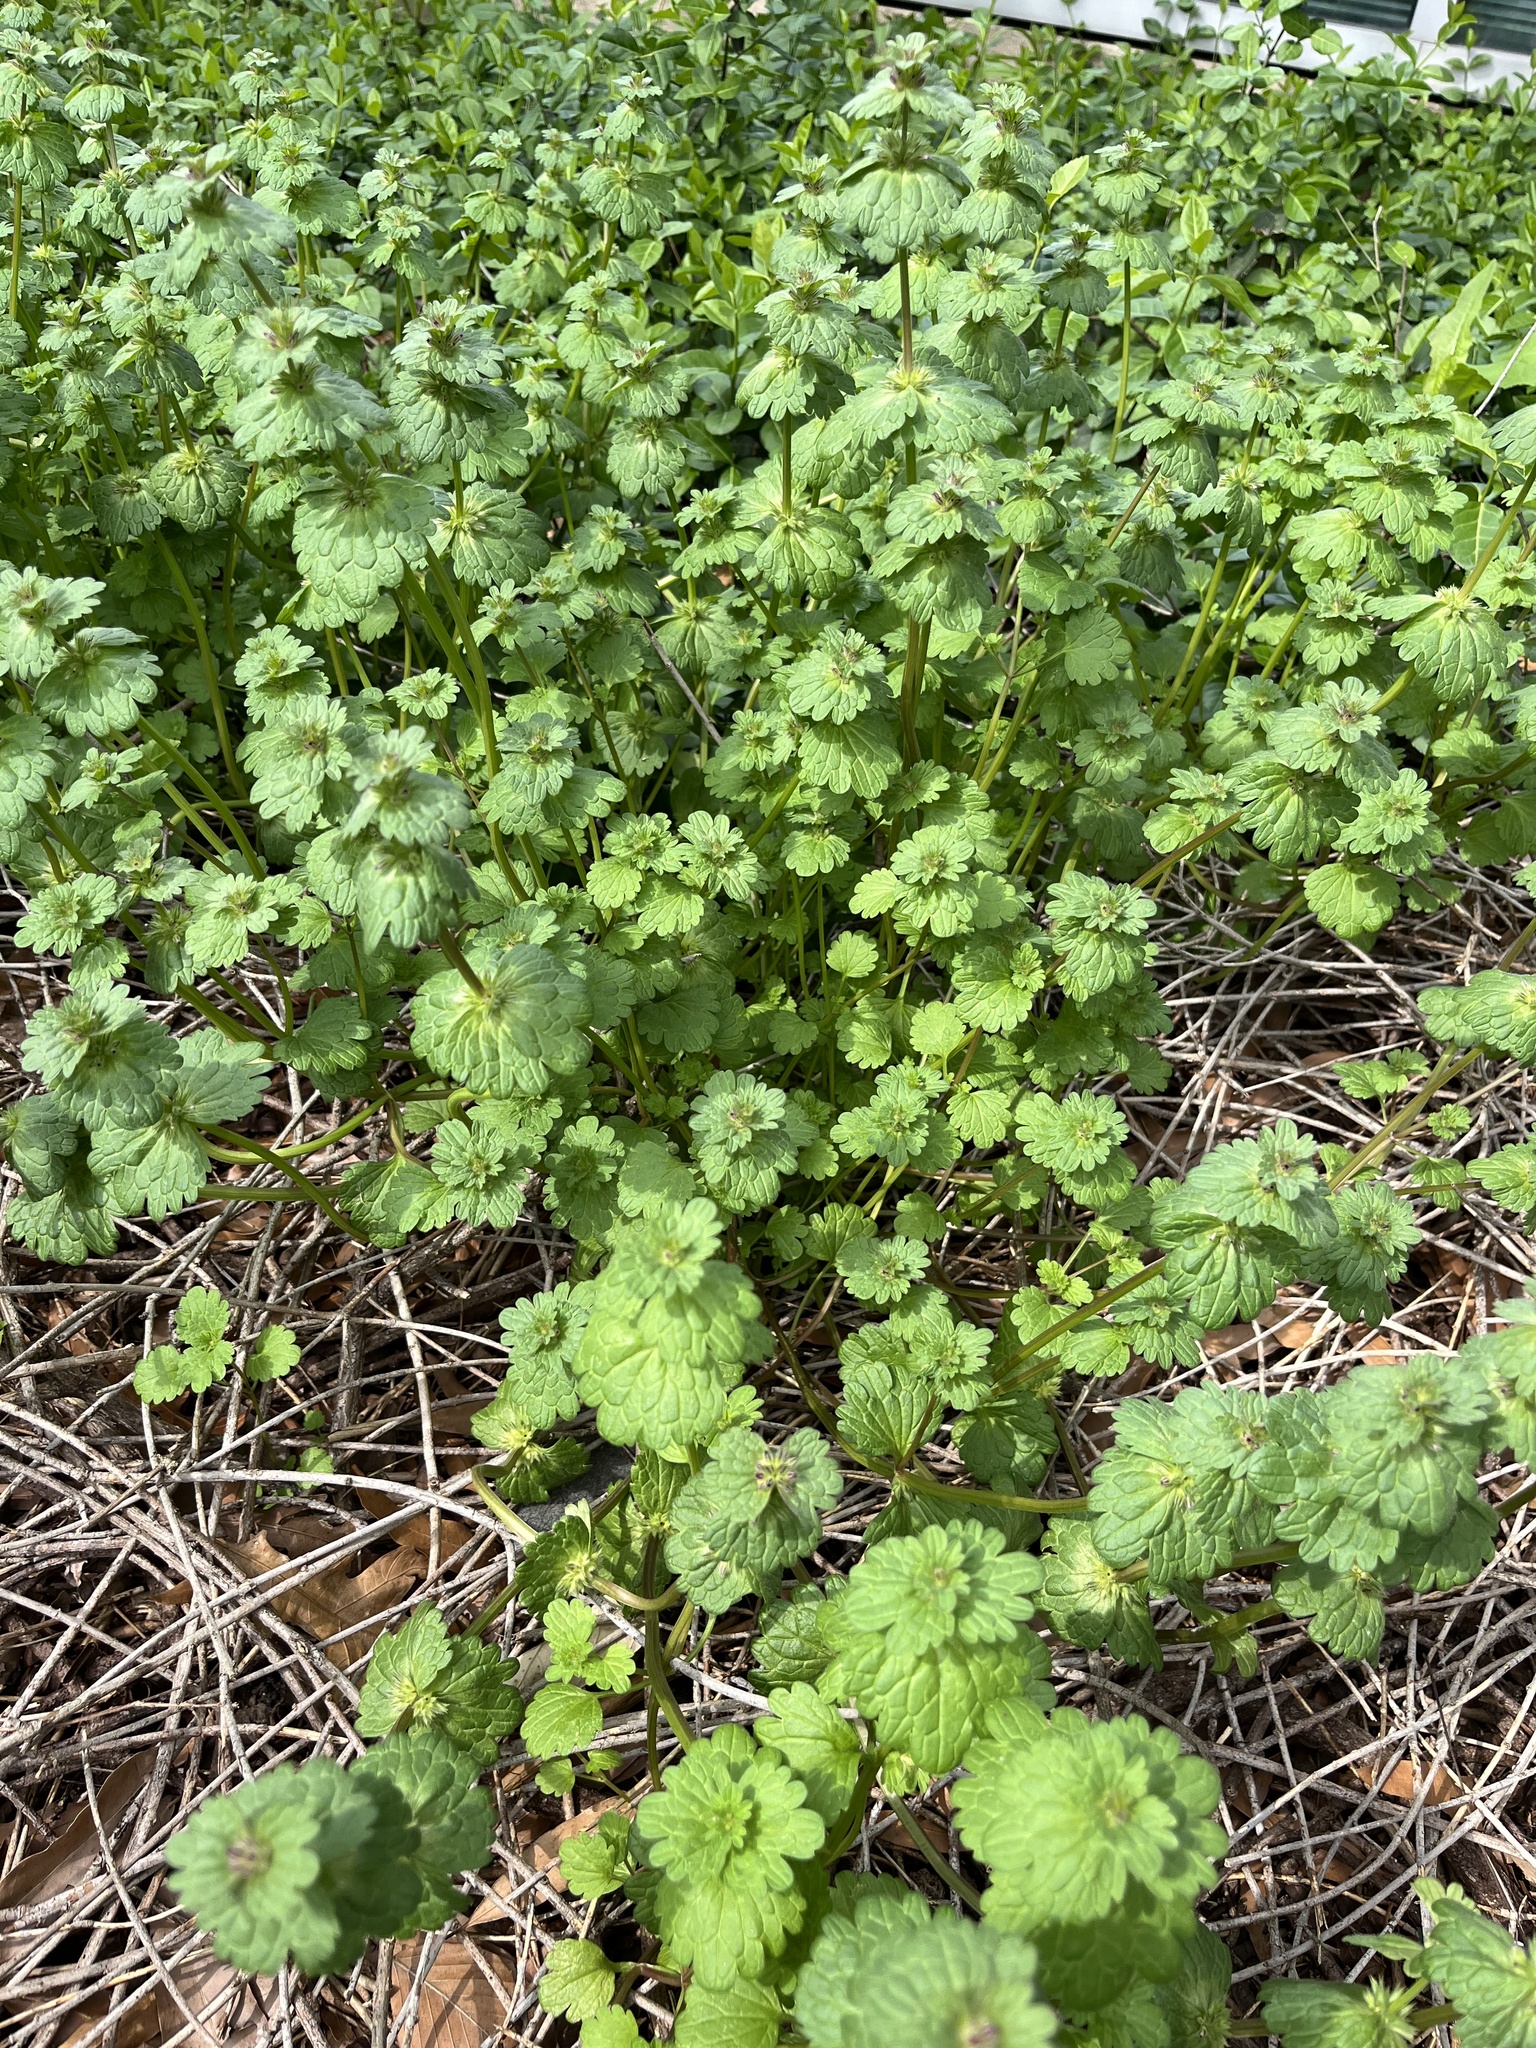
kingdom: Plantae
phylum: Tracheophyta
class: Magnoliopsida
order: Lamiales
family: Lamiaceae
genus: Lamium
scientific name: Lamium amplexicaule
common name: Henbit dead-nettle
